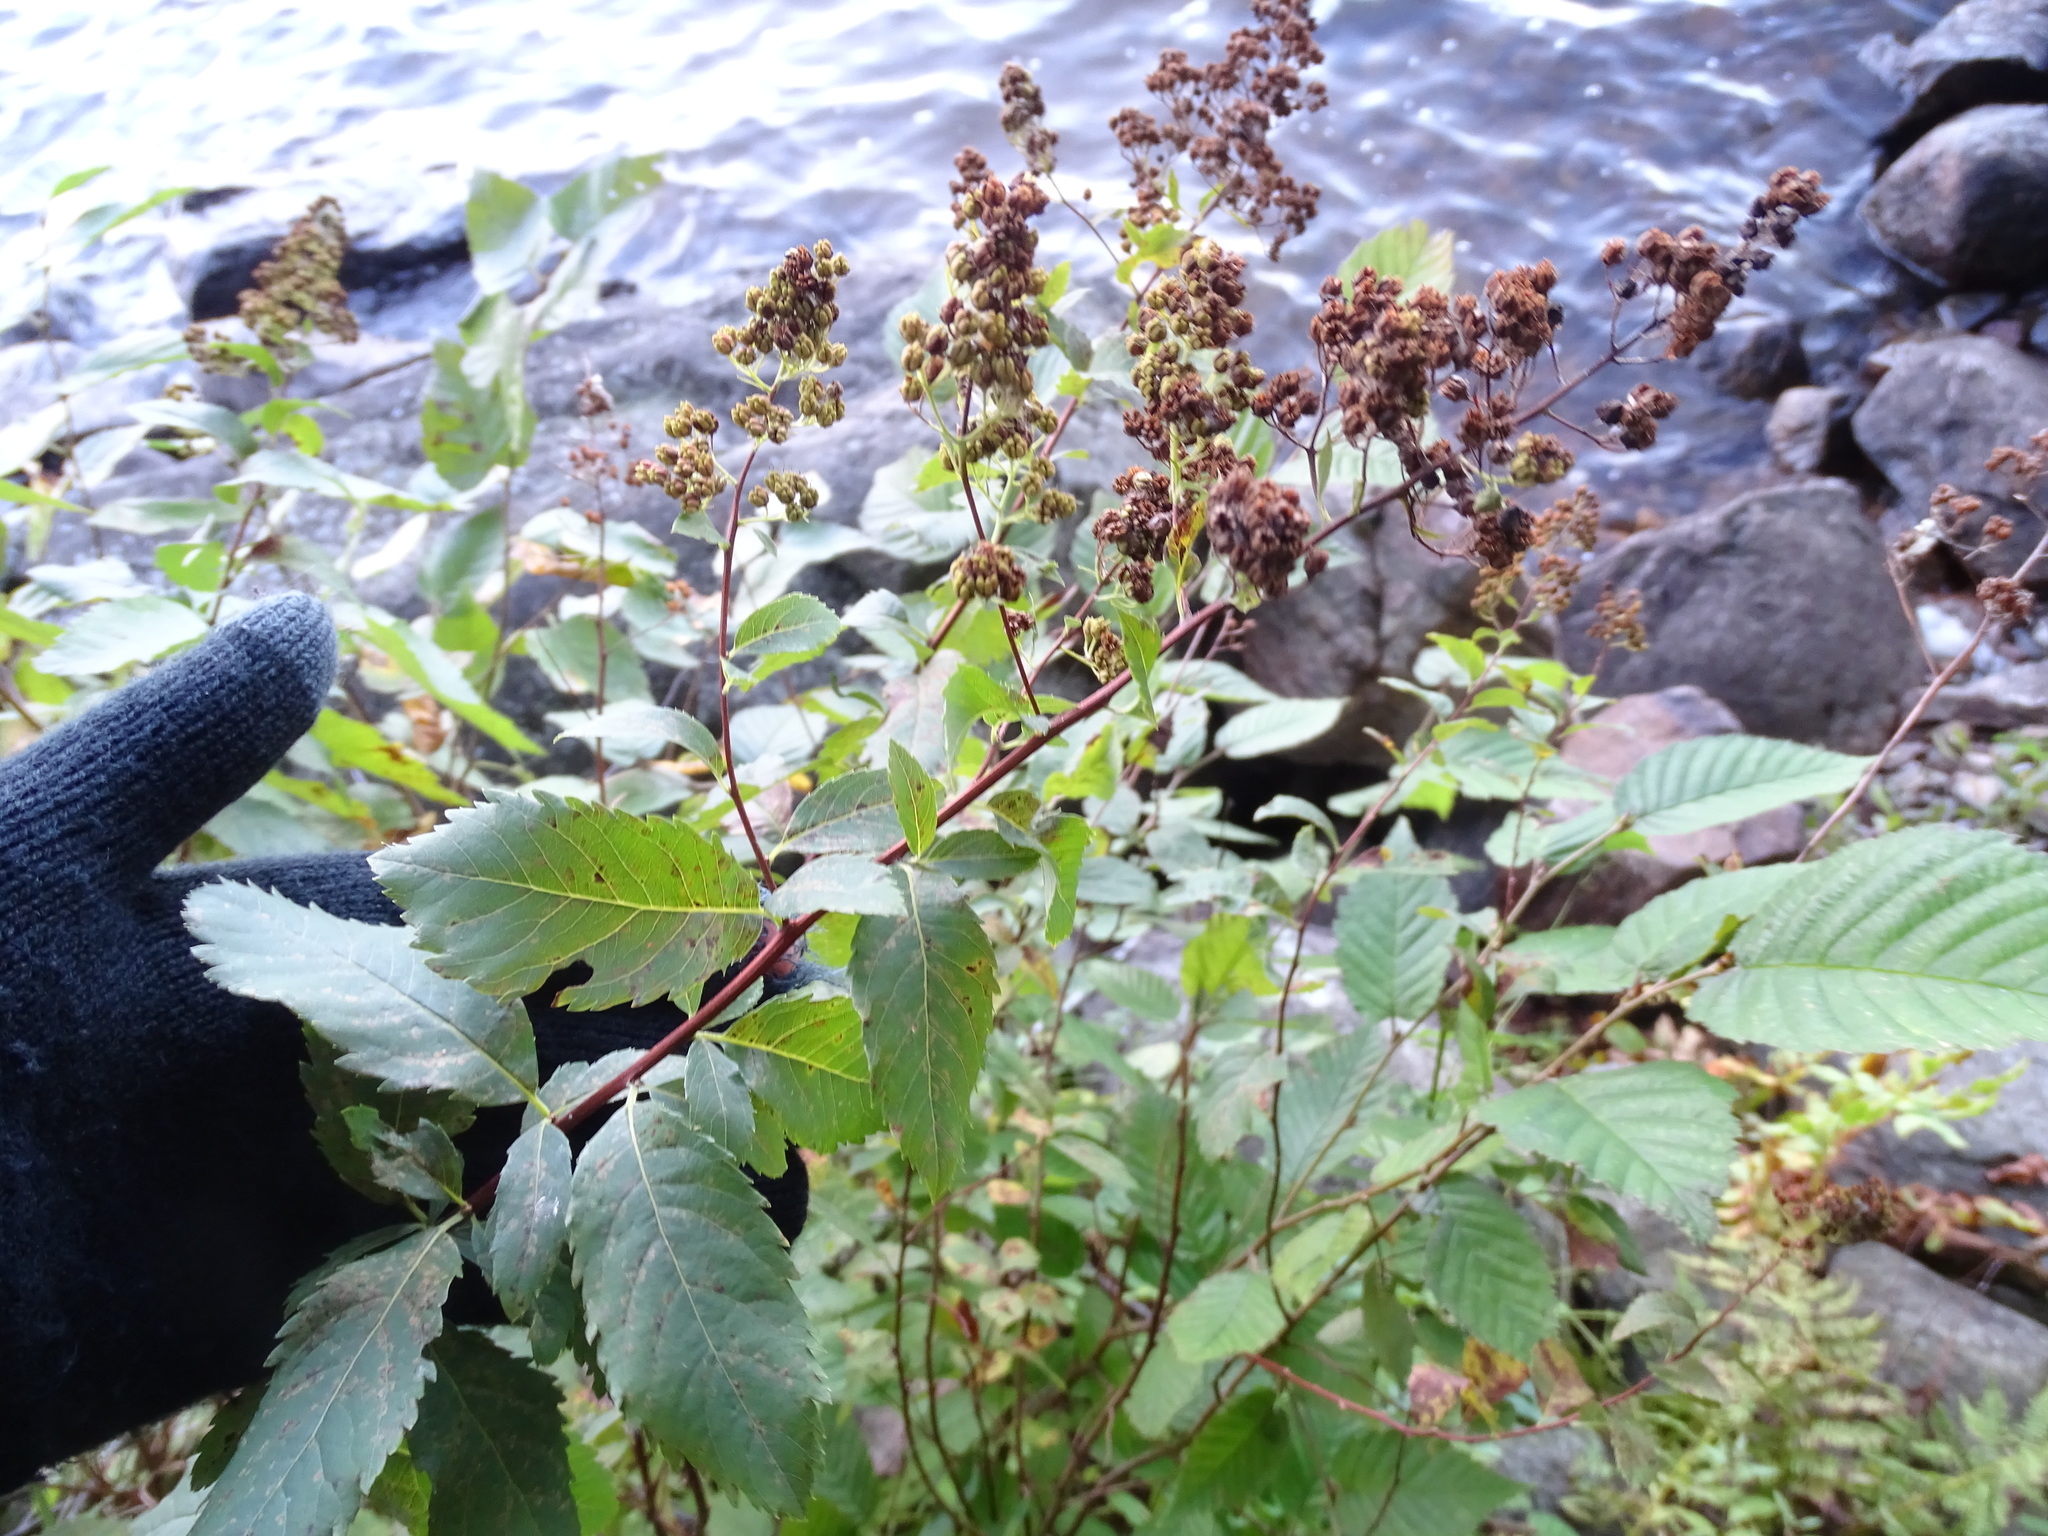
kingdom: Plantae
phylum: Tracheophyta
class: Magnoliopsida
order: Rosales
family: Rosaceae
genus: Spiraea
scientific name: Spiraea alba
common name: Pale bridewort
